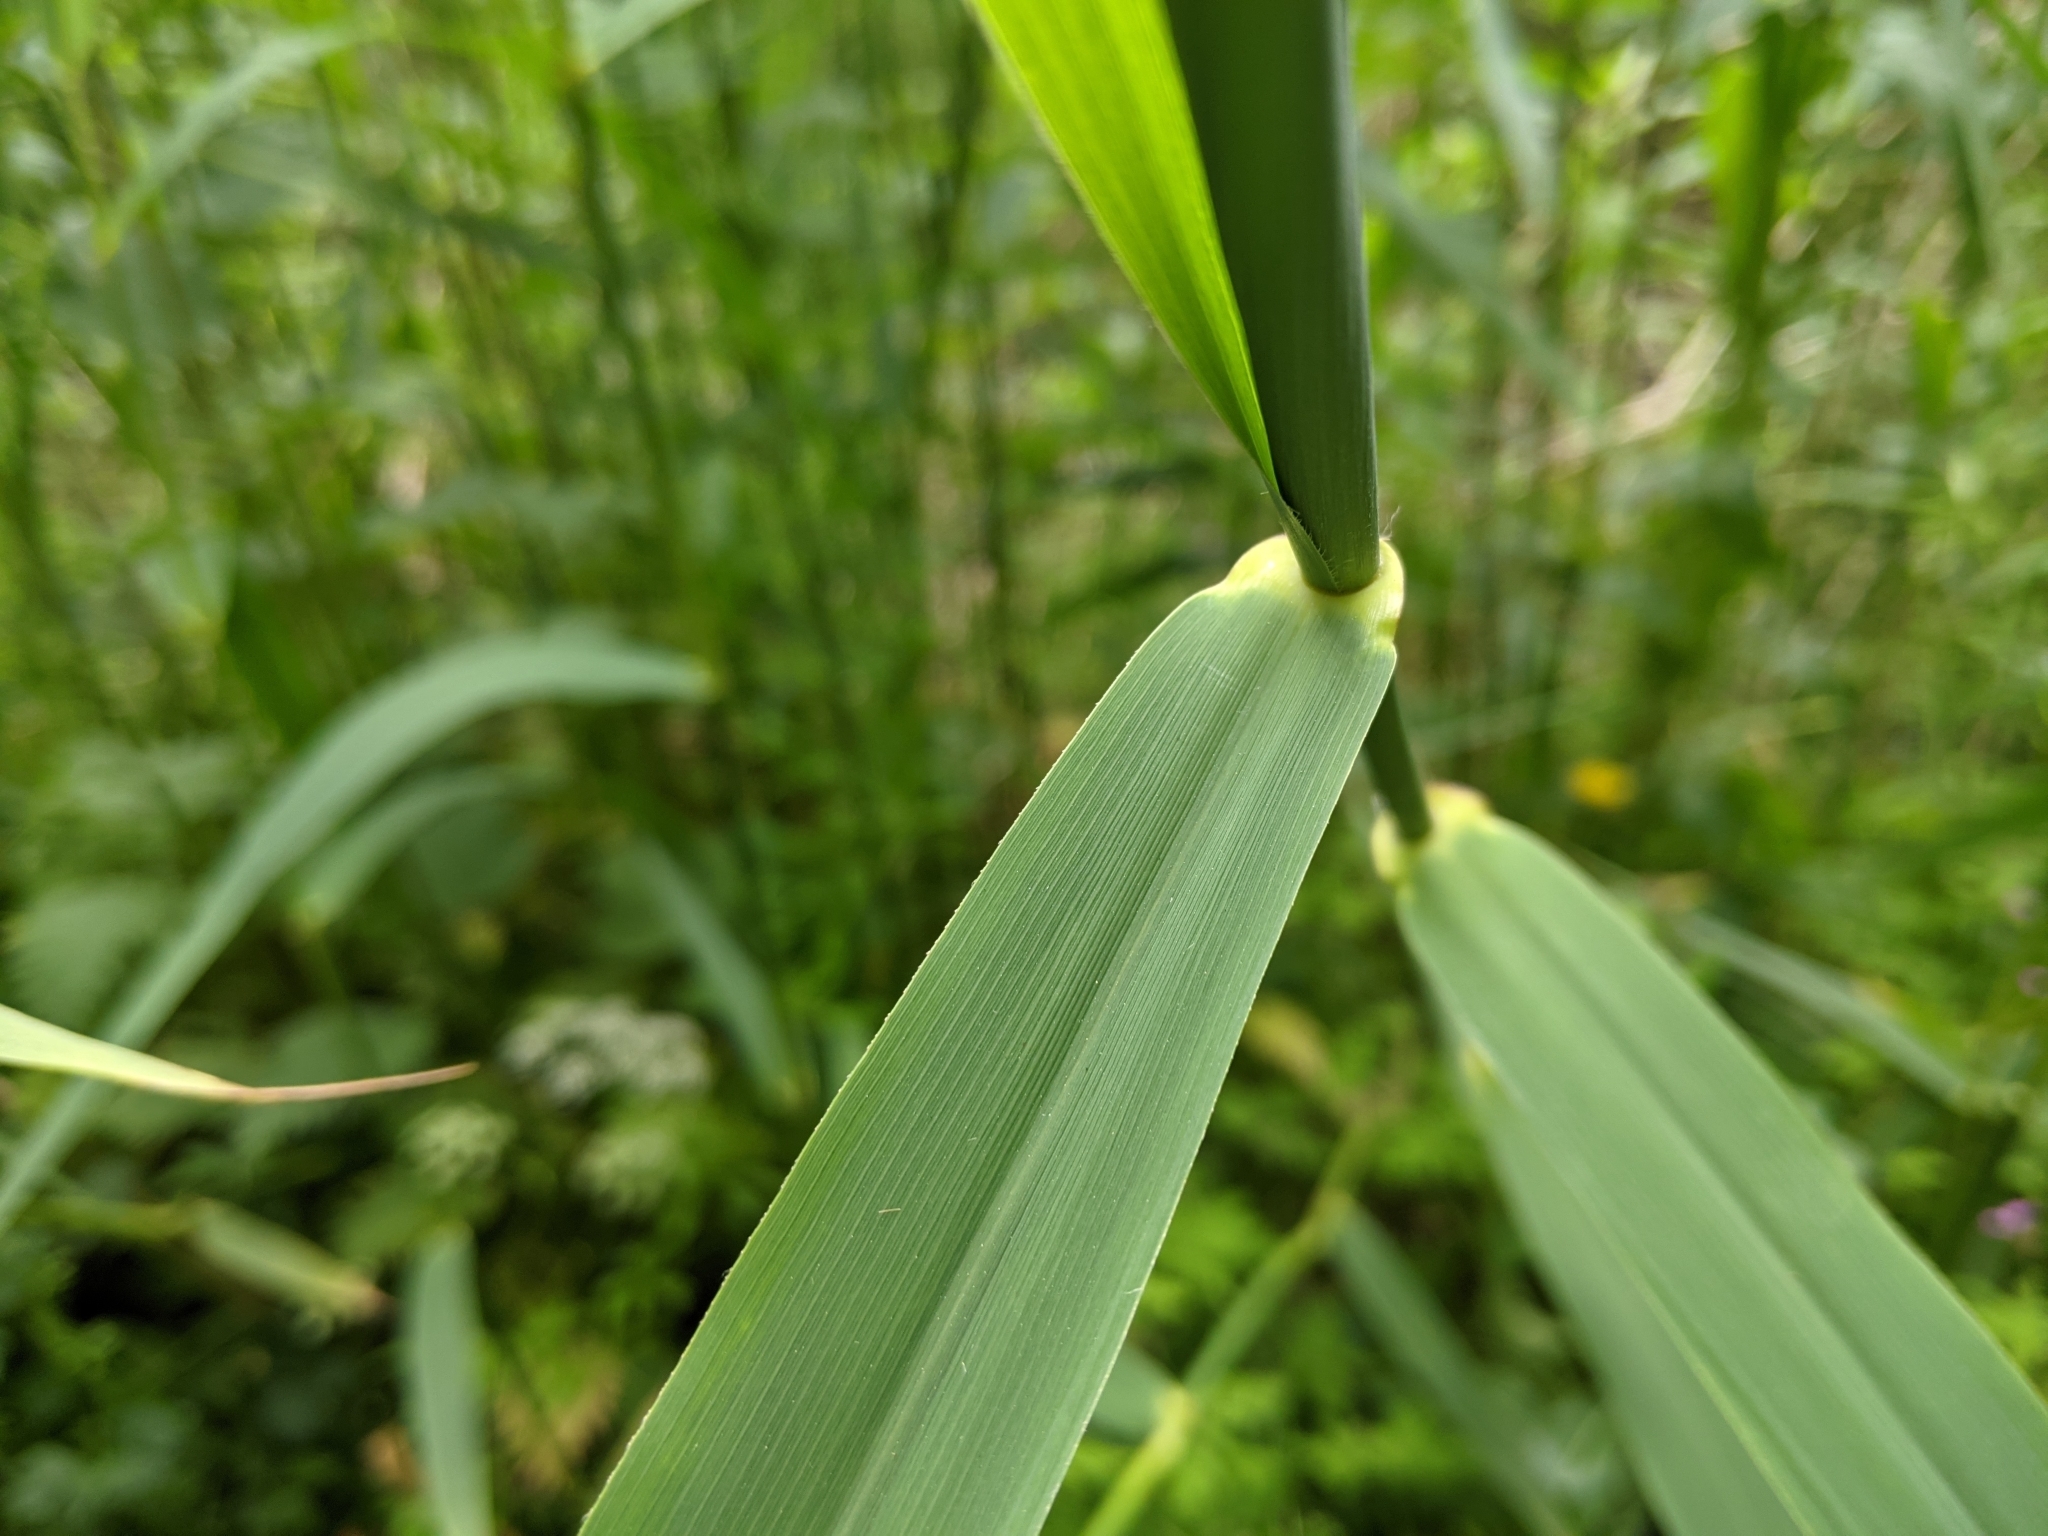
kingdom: Plantae
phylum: Tracheophyta
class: Liliopsida
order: Poales
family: Poaceae
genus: Phalaris
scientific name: Phalaris arundinacea
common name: Reed canary-grass
